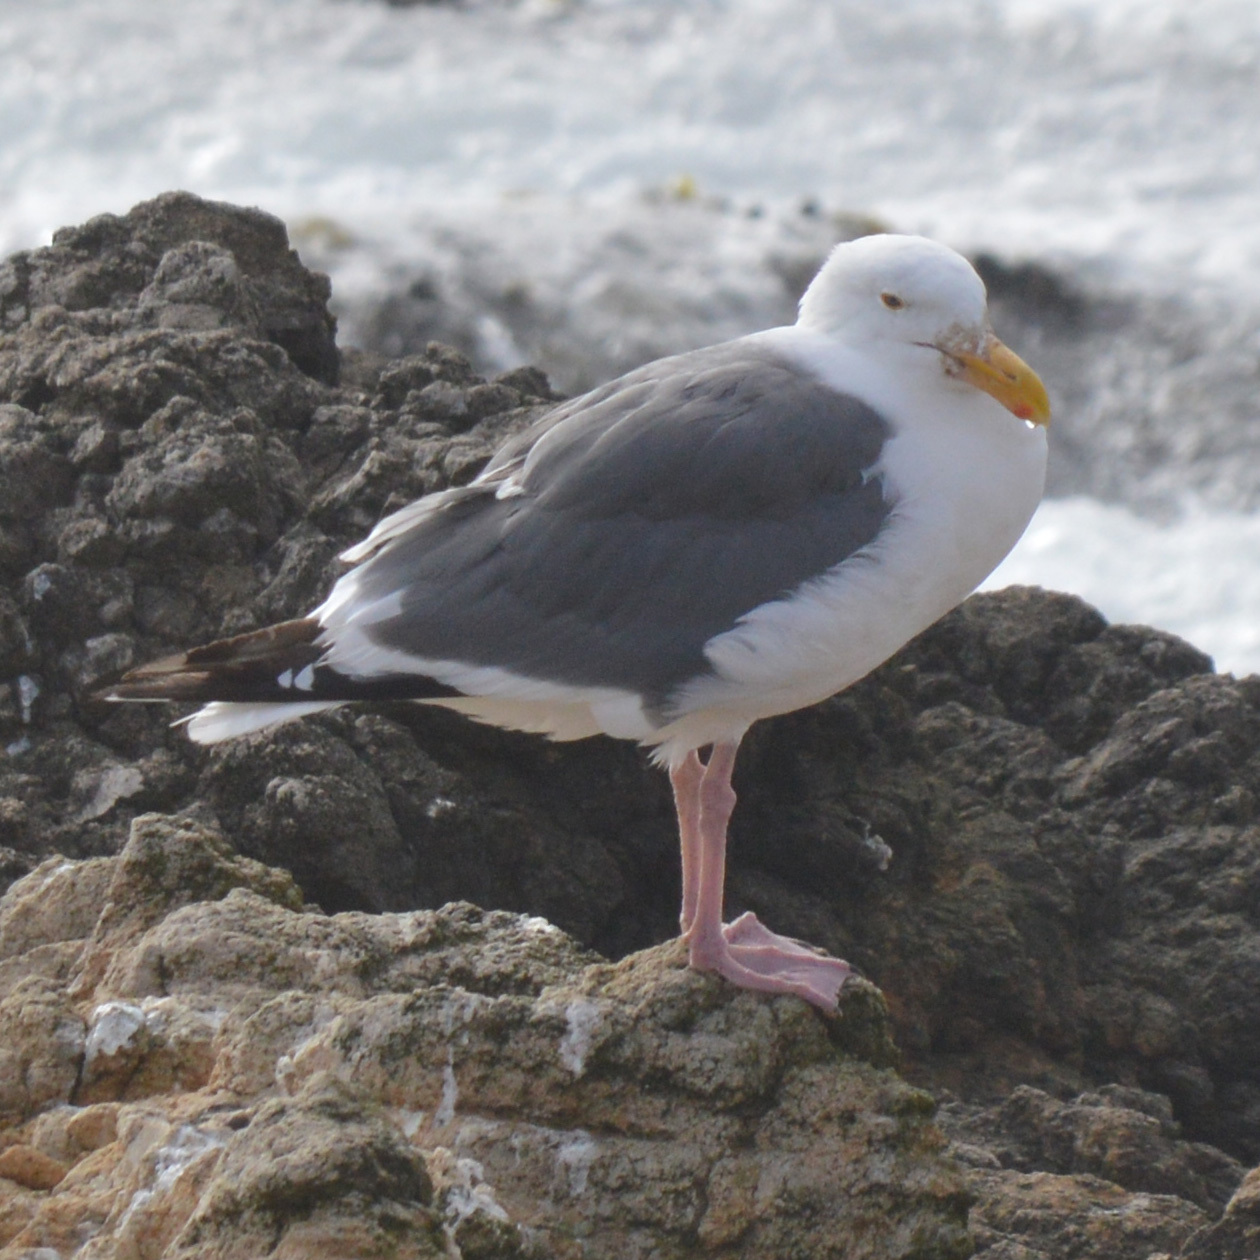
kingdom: Animalia
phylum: Chordata
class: Aves
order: Charadriiformes
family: Laridae
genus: Larus
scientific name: Larus occidentalis
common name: Western gull
